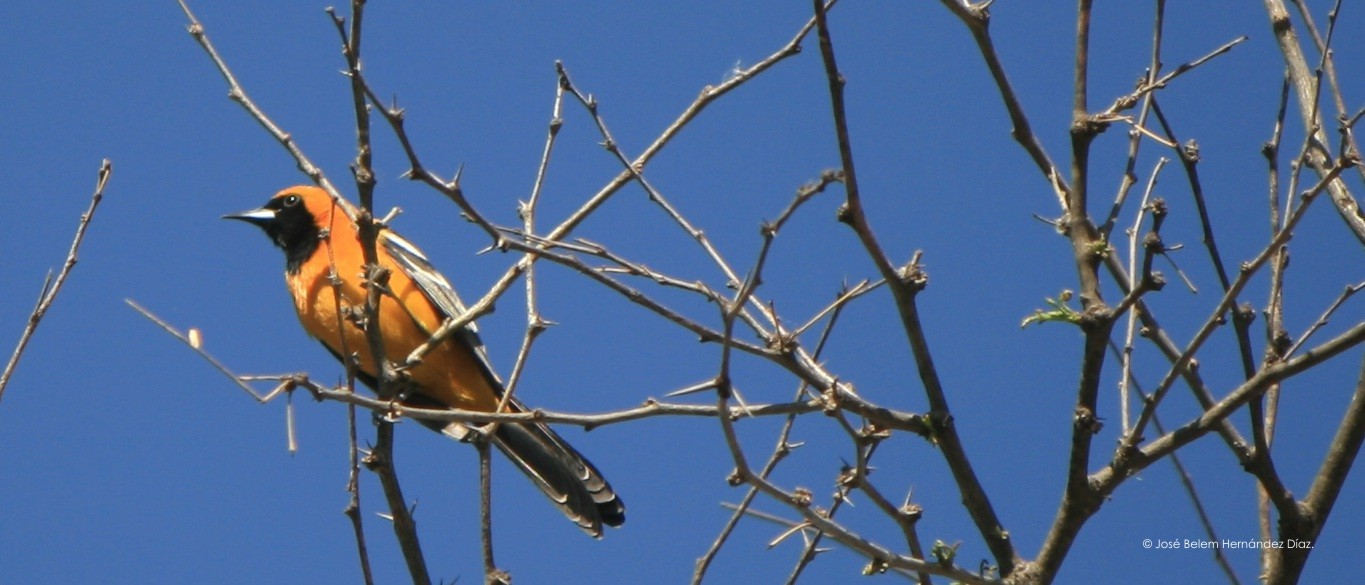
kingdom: Animalia
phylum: Chordata
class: Aves
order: Passeriformes
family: Icteridae
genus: Icterus
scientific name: Icterus cucullatus
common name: Hooded oriole
